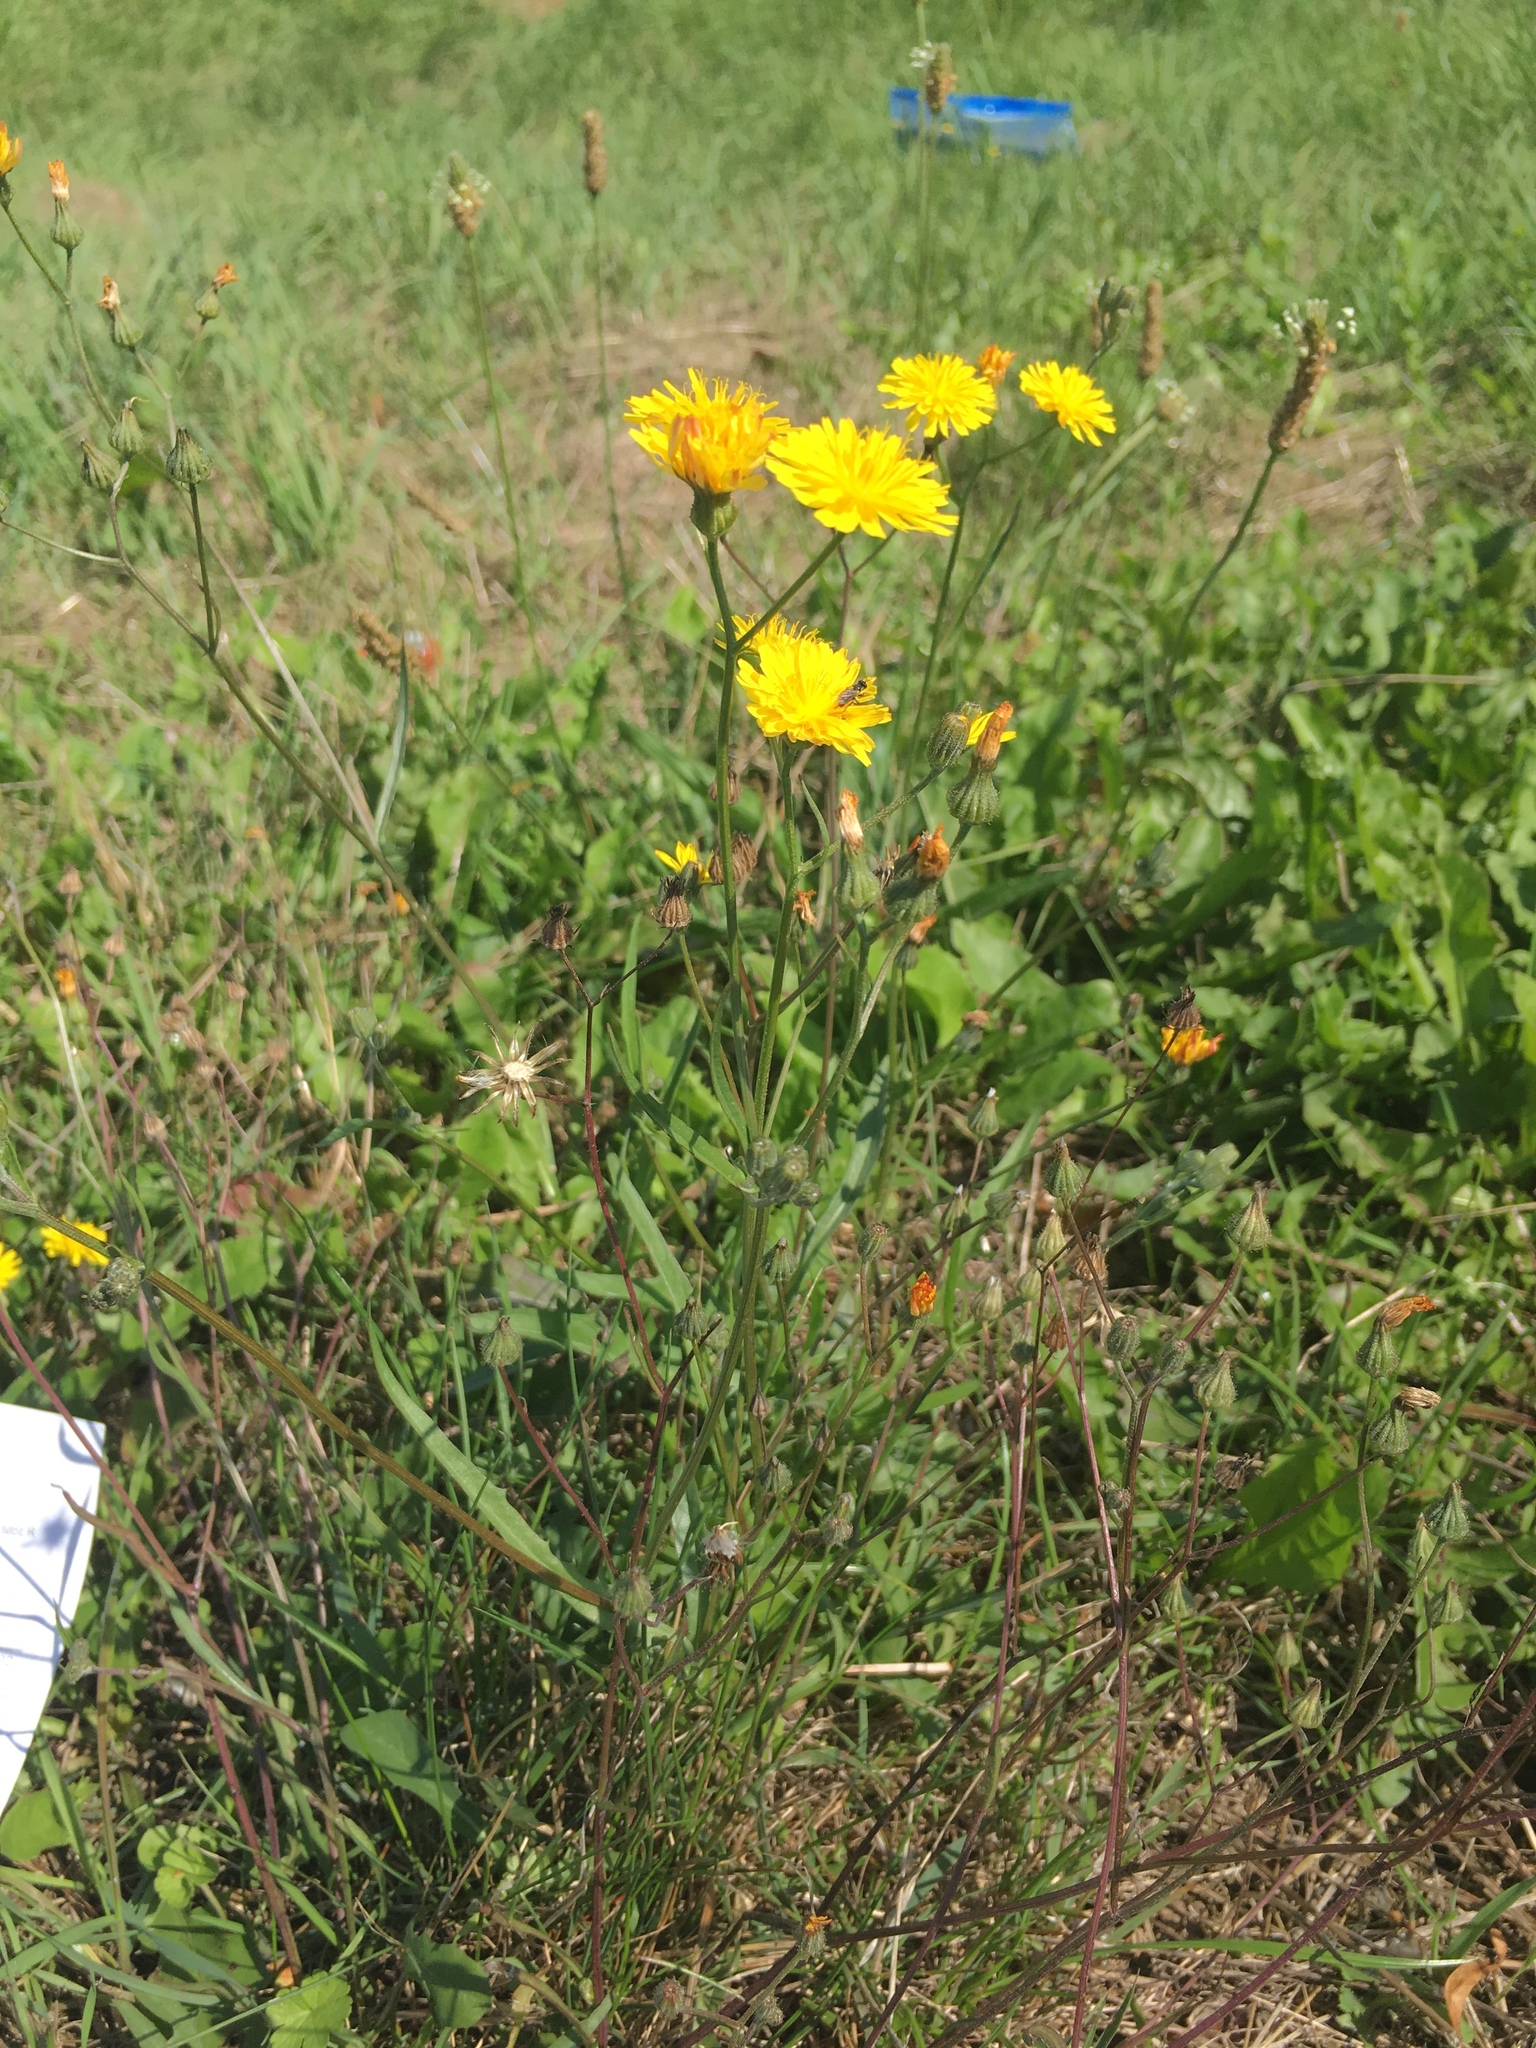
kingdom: Plantae
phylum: Tracheophyta
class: Magnoliopsida
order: Asterales
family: Asteraceae
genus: Crepis
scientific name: Crepis capillaris
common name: Smooth hawksbeard
